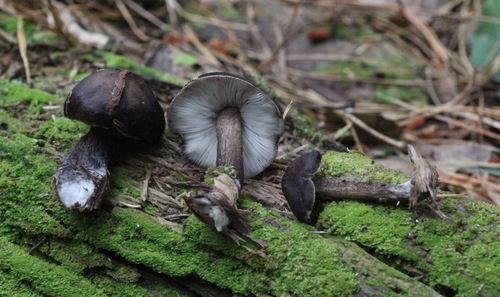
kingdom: Fungi
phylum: Basidiomycota
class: Agaricomycetes
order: Agaricales
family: Pluteaceae
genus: Pluteus
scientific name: Pluteus atromarginatus
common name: Blackedged shield
